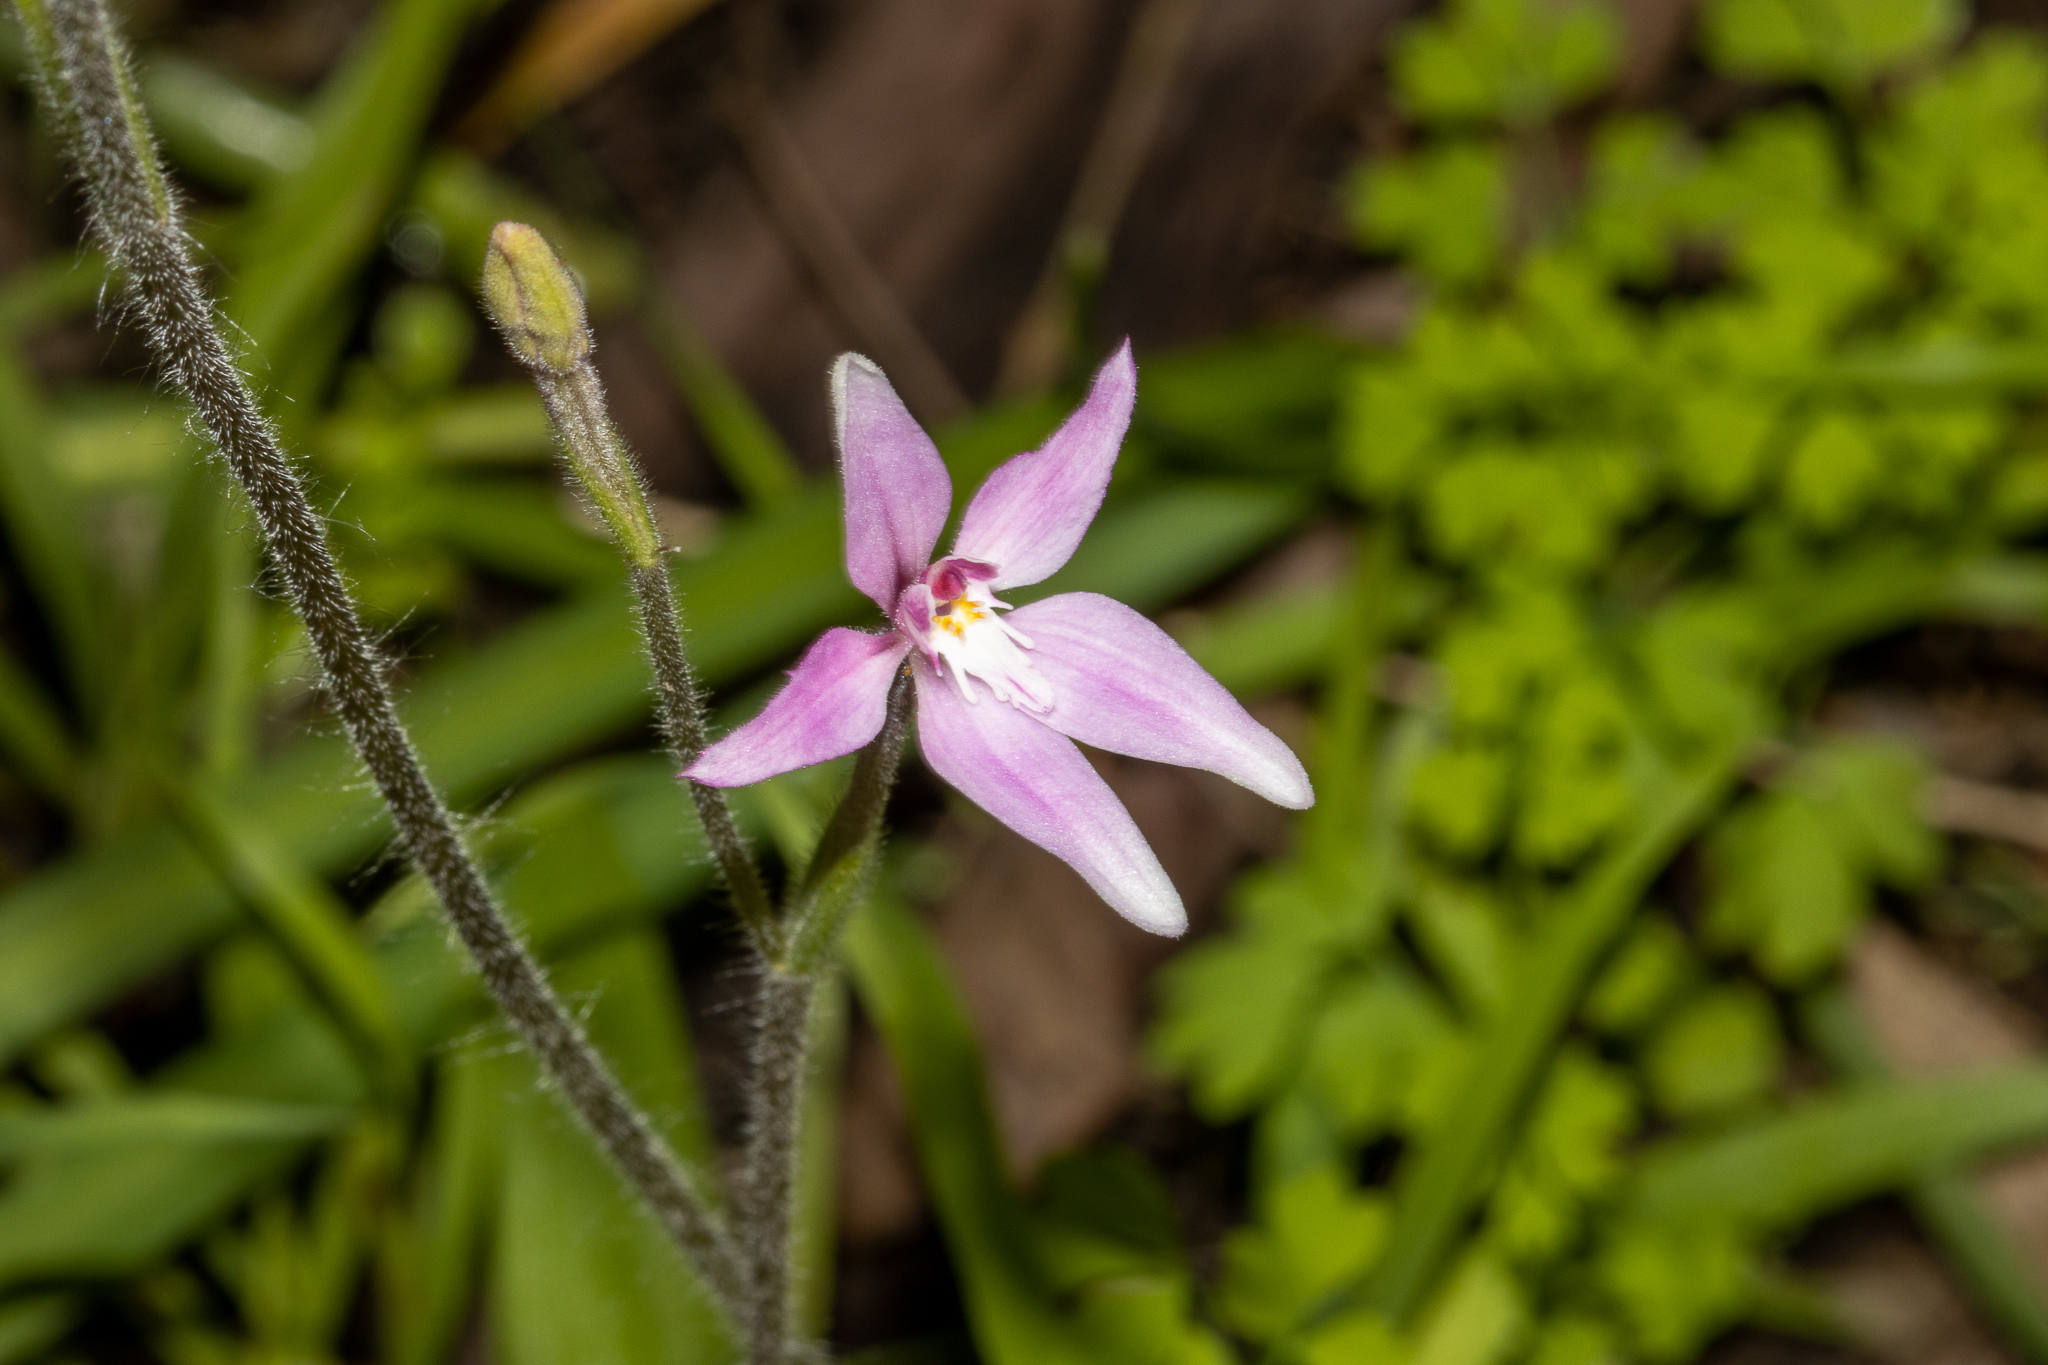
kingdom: Plantae
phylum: Tracheophyta
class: Liliopsida
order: Asparagales
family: Orchidaceae
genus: Caladenia
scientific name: Caladenia latifolia
